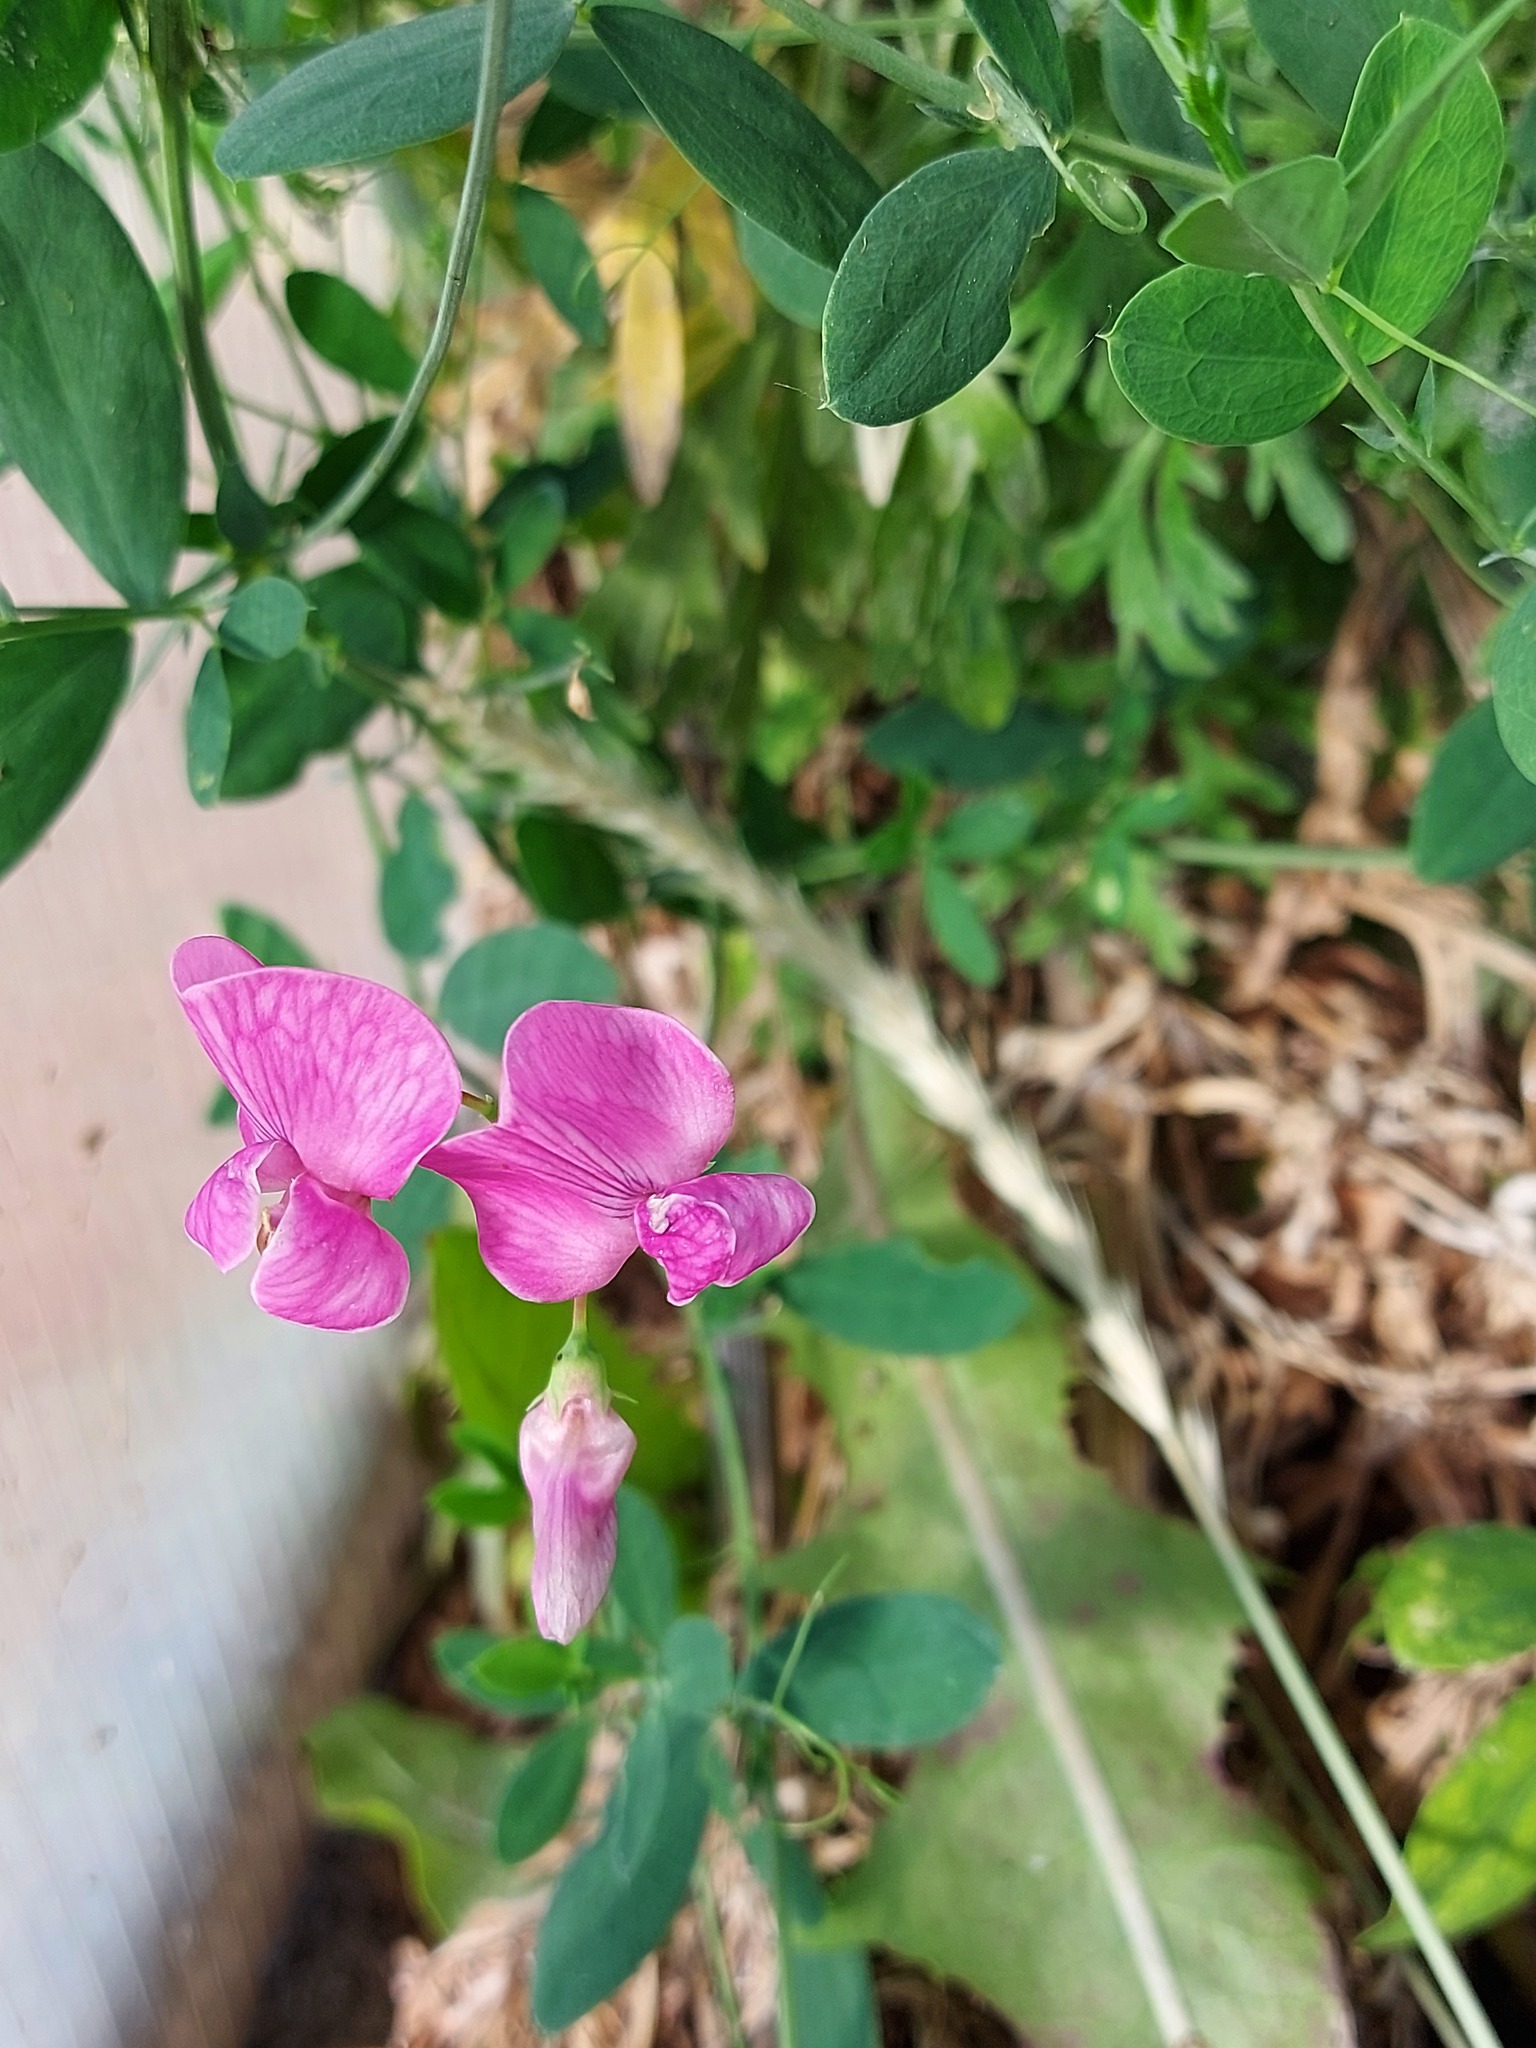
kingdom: Plantae
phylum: Tracheophyta
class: Magnoliopsida
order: Fabales
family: Fabaceae
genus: Lathyrus
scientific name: Lathyrus tuberosus
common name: Tuberous pea
